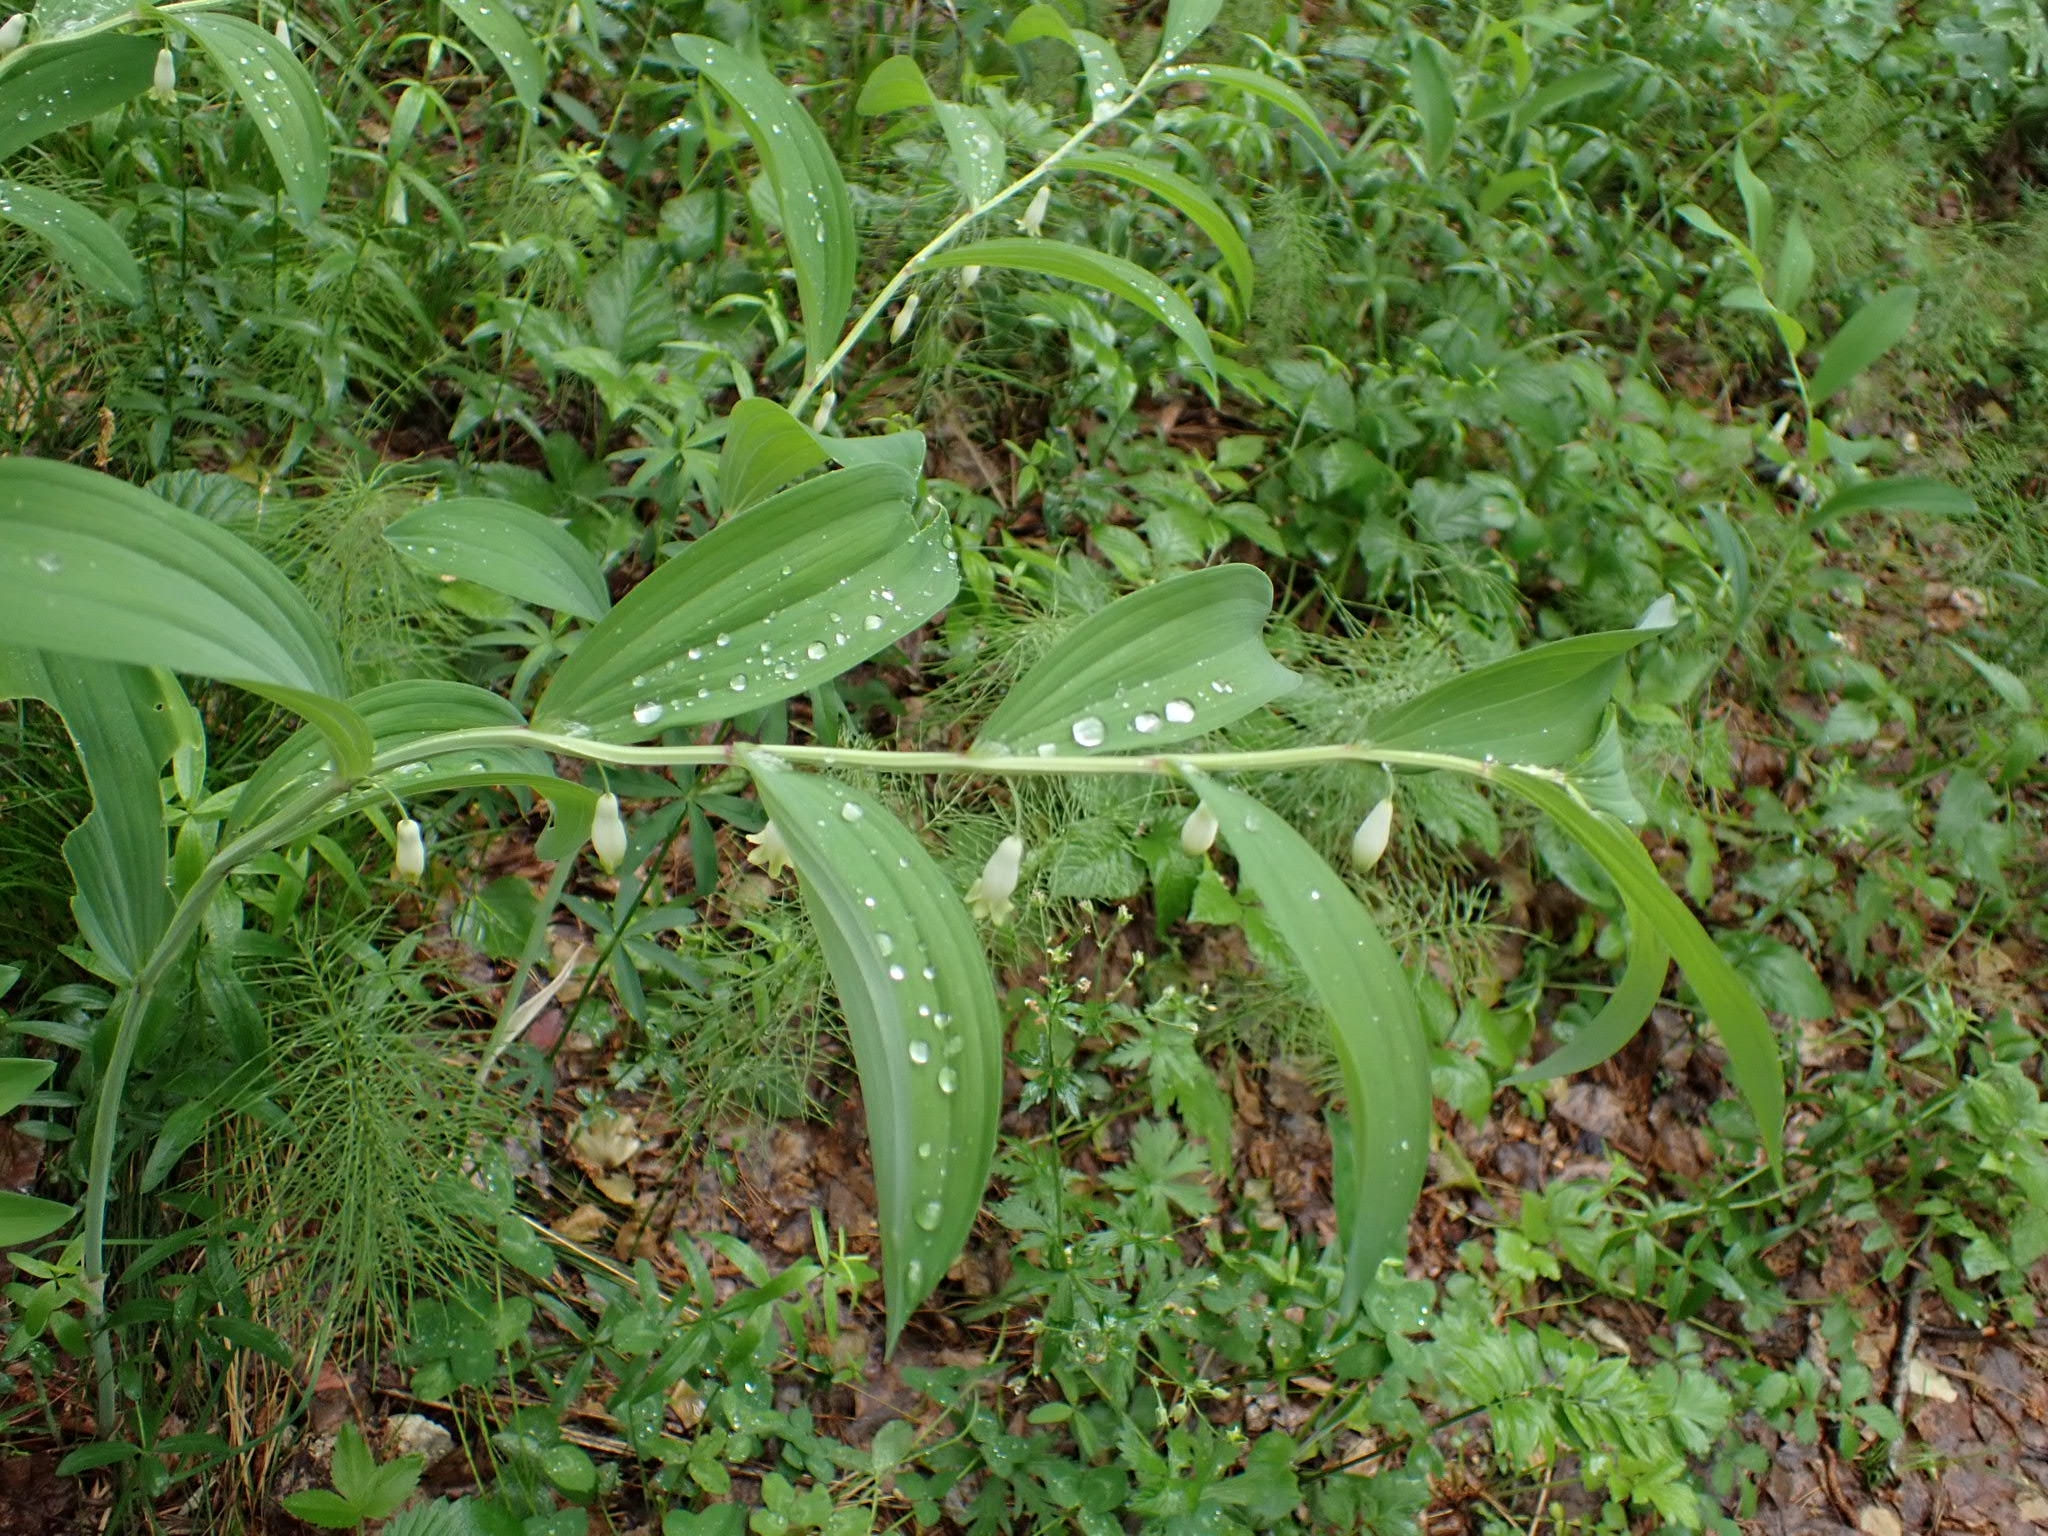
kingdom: Plantae
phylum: Tracheophyta
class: Liliopsida
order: Asparagales
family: Asparagaceae
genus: Polygonatum
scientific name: Polygonatum odoratum
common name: Angular solomon's-seal
